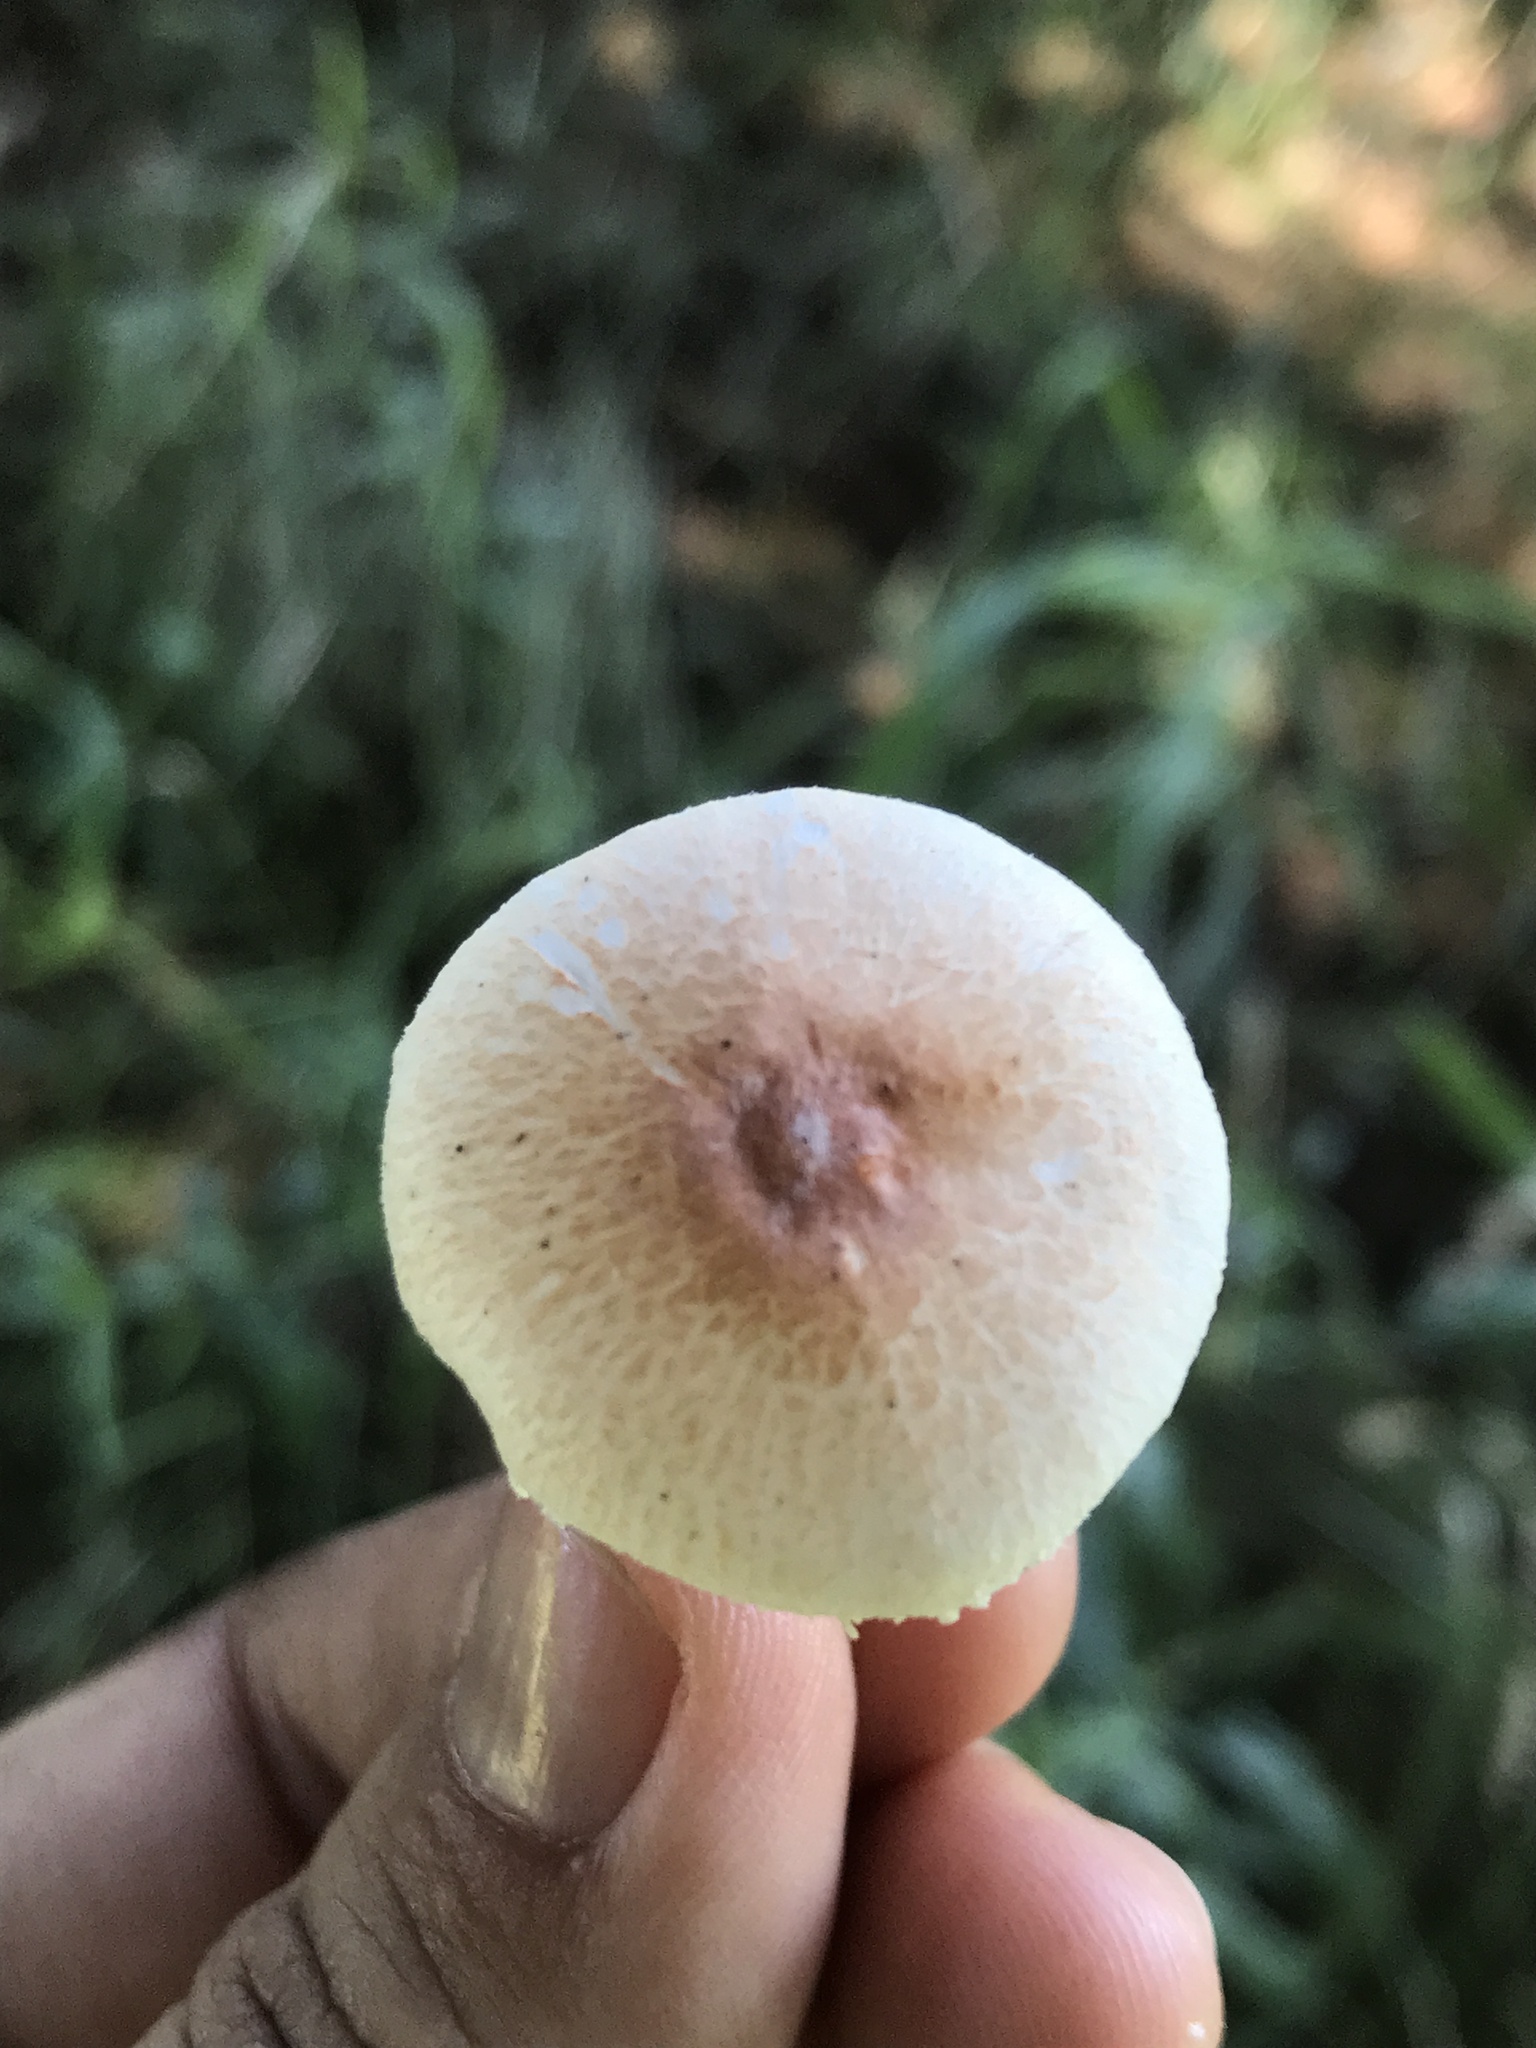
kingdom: Fungi
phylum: Basidiomycota
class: Agaricomycetes
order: Agaricales
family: Agaricaceae
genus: Leucoagaricus
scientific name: Leucoagaricus rubrotinctus
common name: Ruby dapperling
